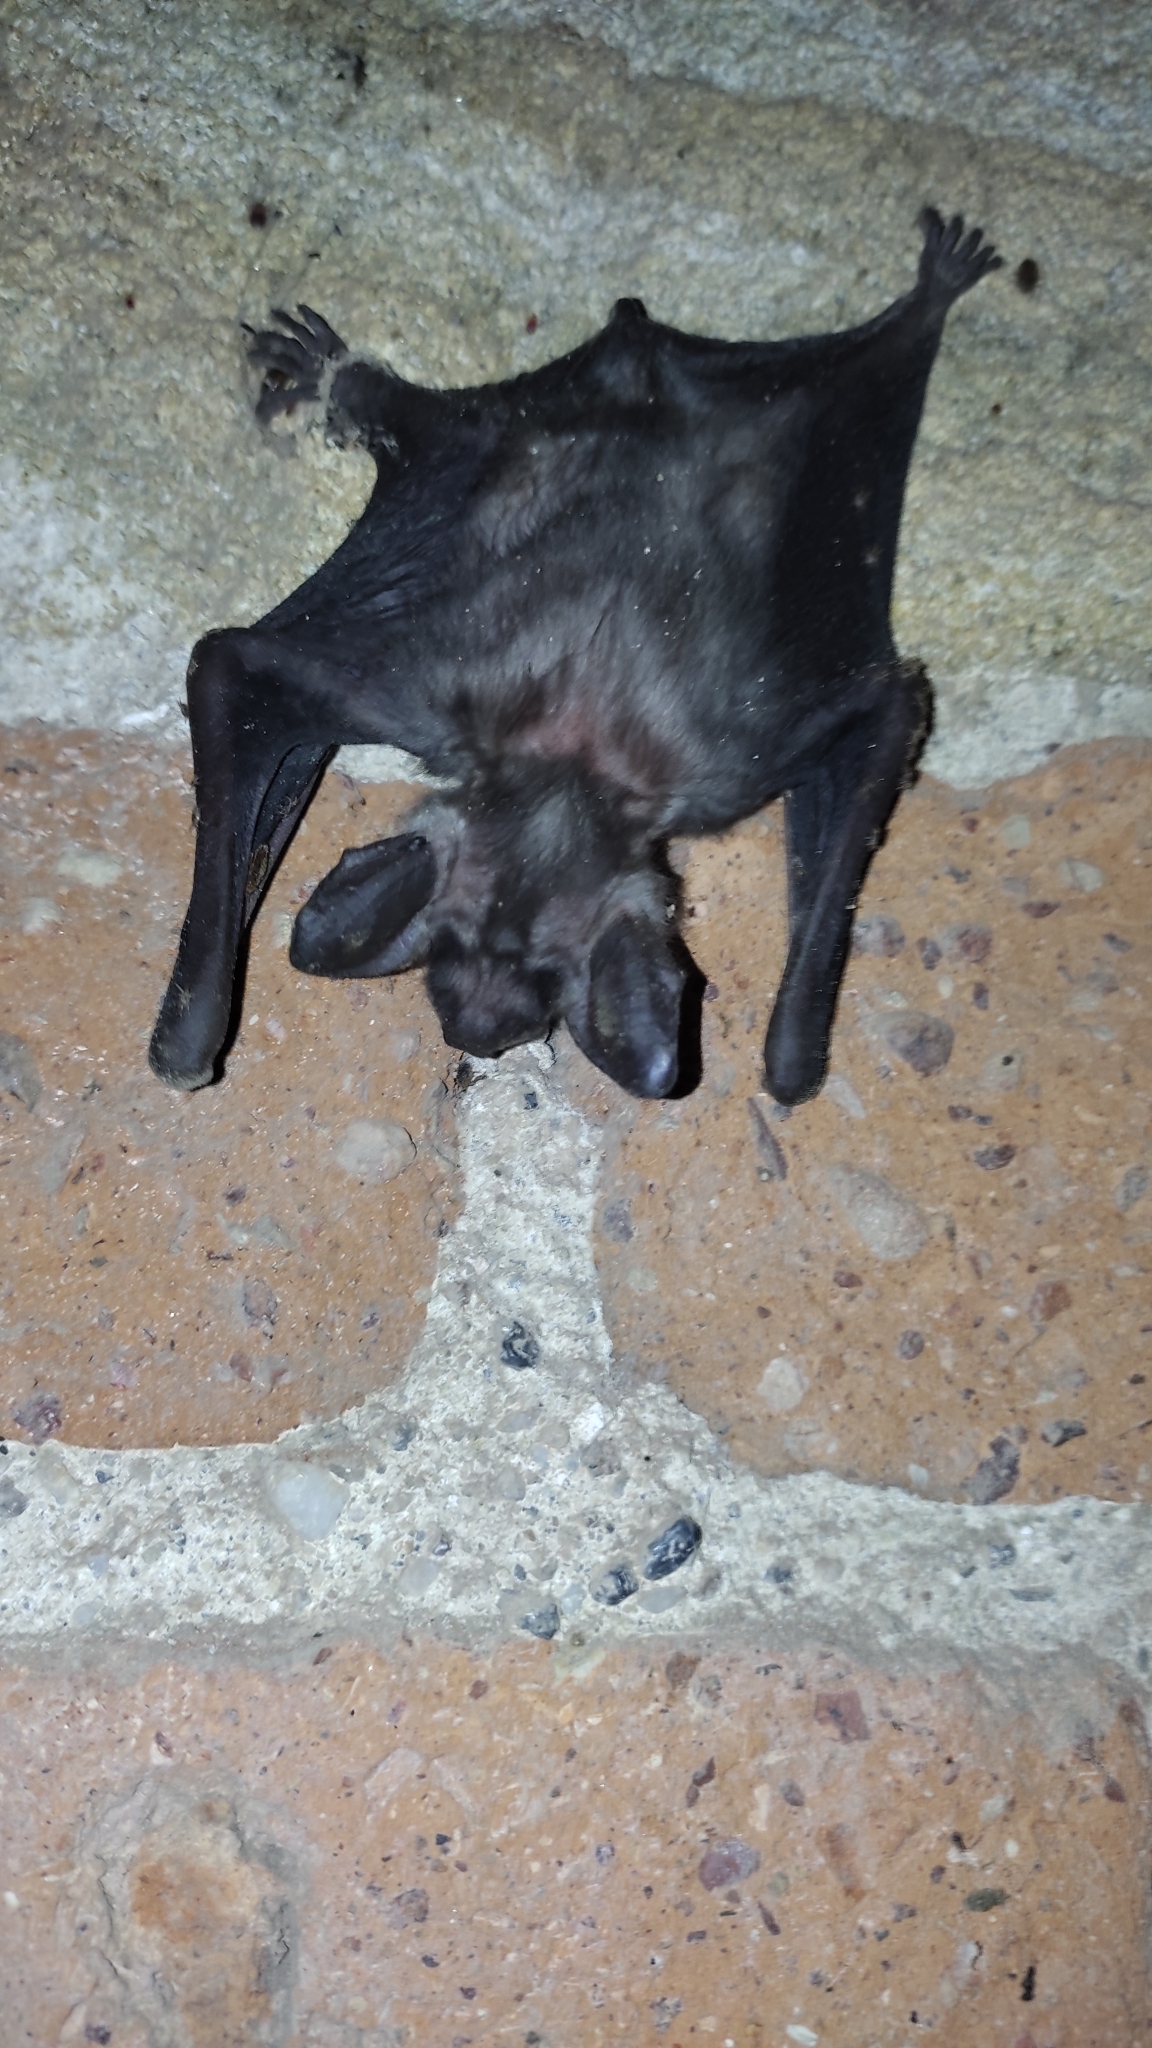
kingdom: Animalia
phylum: Chordata
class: Mammalia
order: Chiroptera
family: Vespertilionidae
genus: Myotis
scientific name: Myotis myotis
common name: Greater mouse-eared bat
